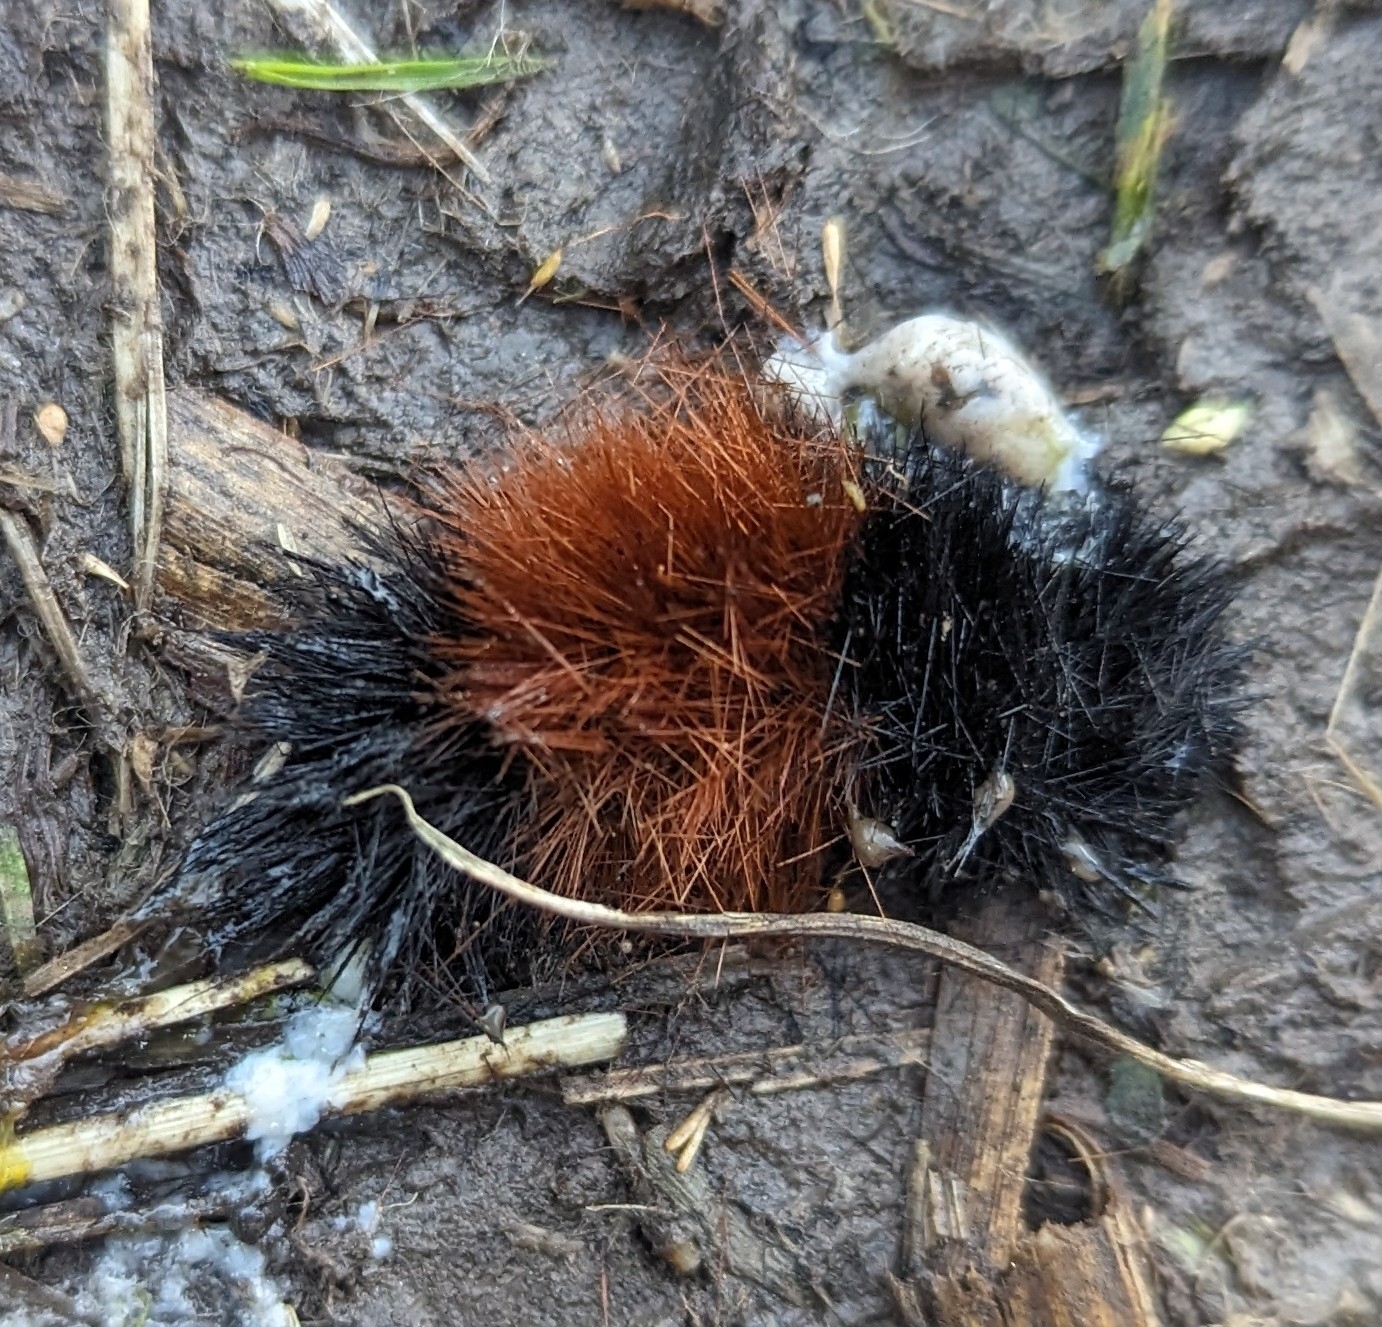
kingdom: Animalia
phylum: Arthropoda
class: Insecta
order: Lepidoptera
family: Erebidae
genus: Pyrrharctia
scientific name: Pyrrharctia isabella
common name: Isabella tiger moth
